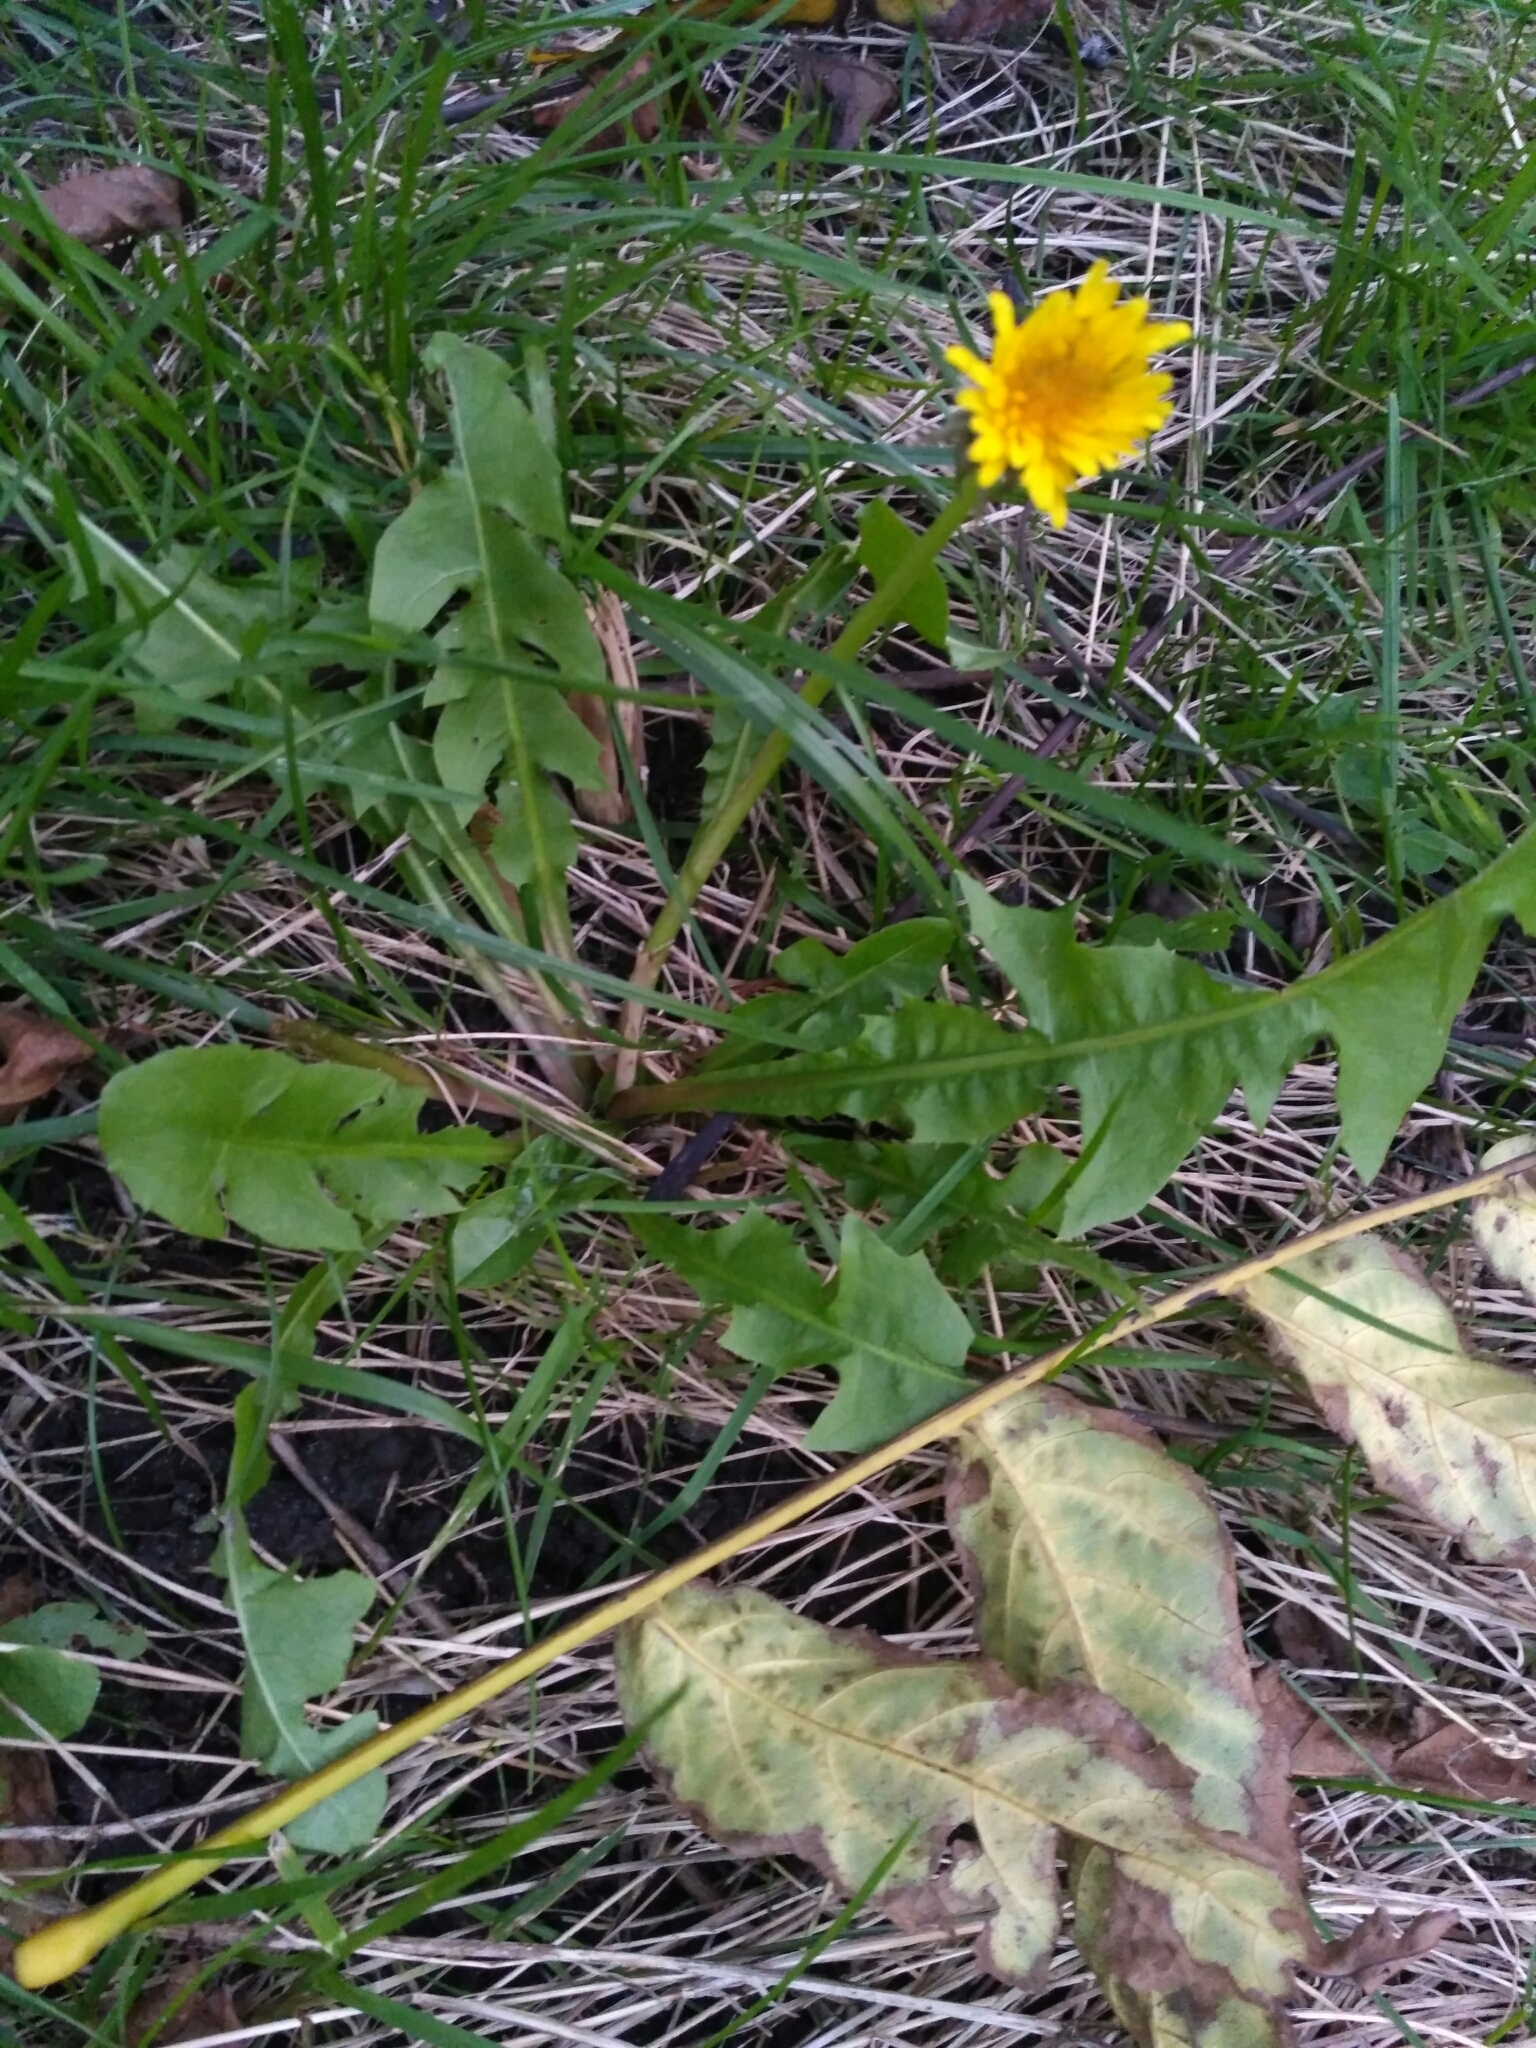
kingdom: Plantae
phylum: Tracheophyta
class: Magnoliopsida
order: Asterales
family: Asteraceae
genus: Taraxacum
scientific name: Taraxacum officinale
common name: Common dandelion
